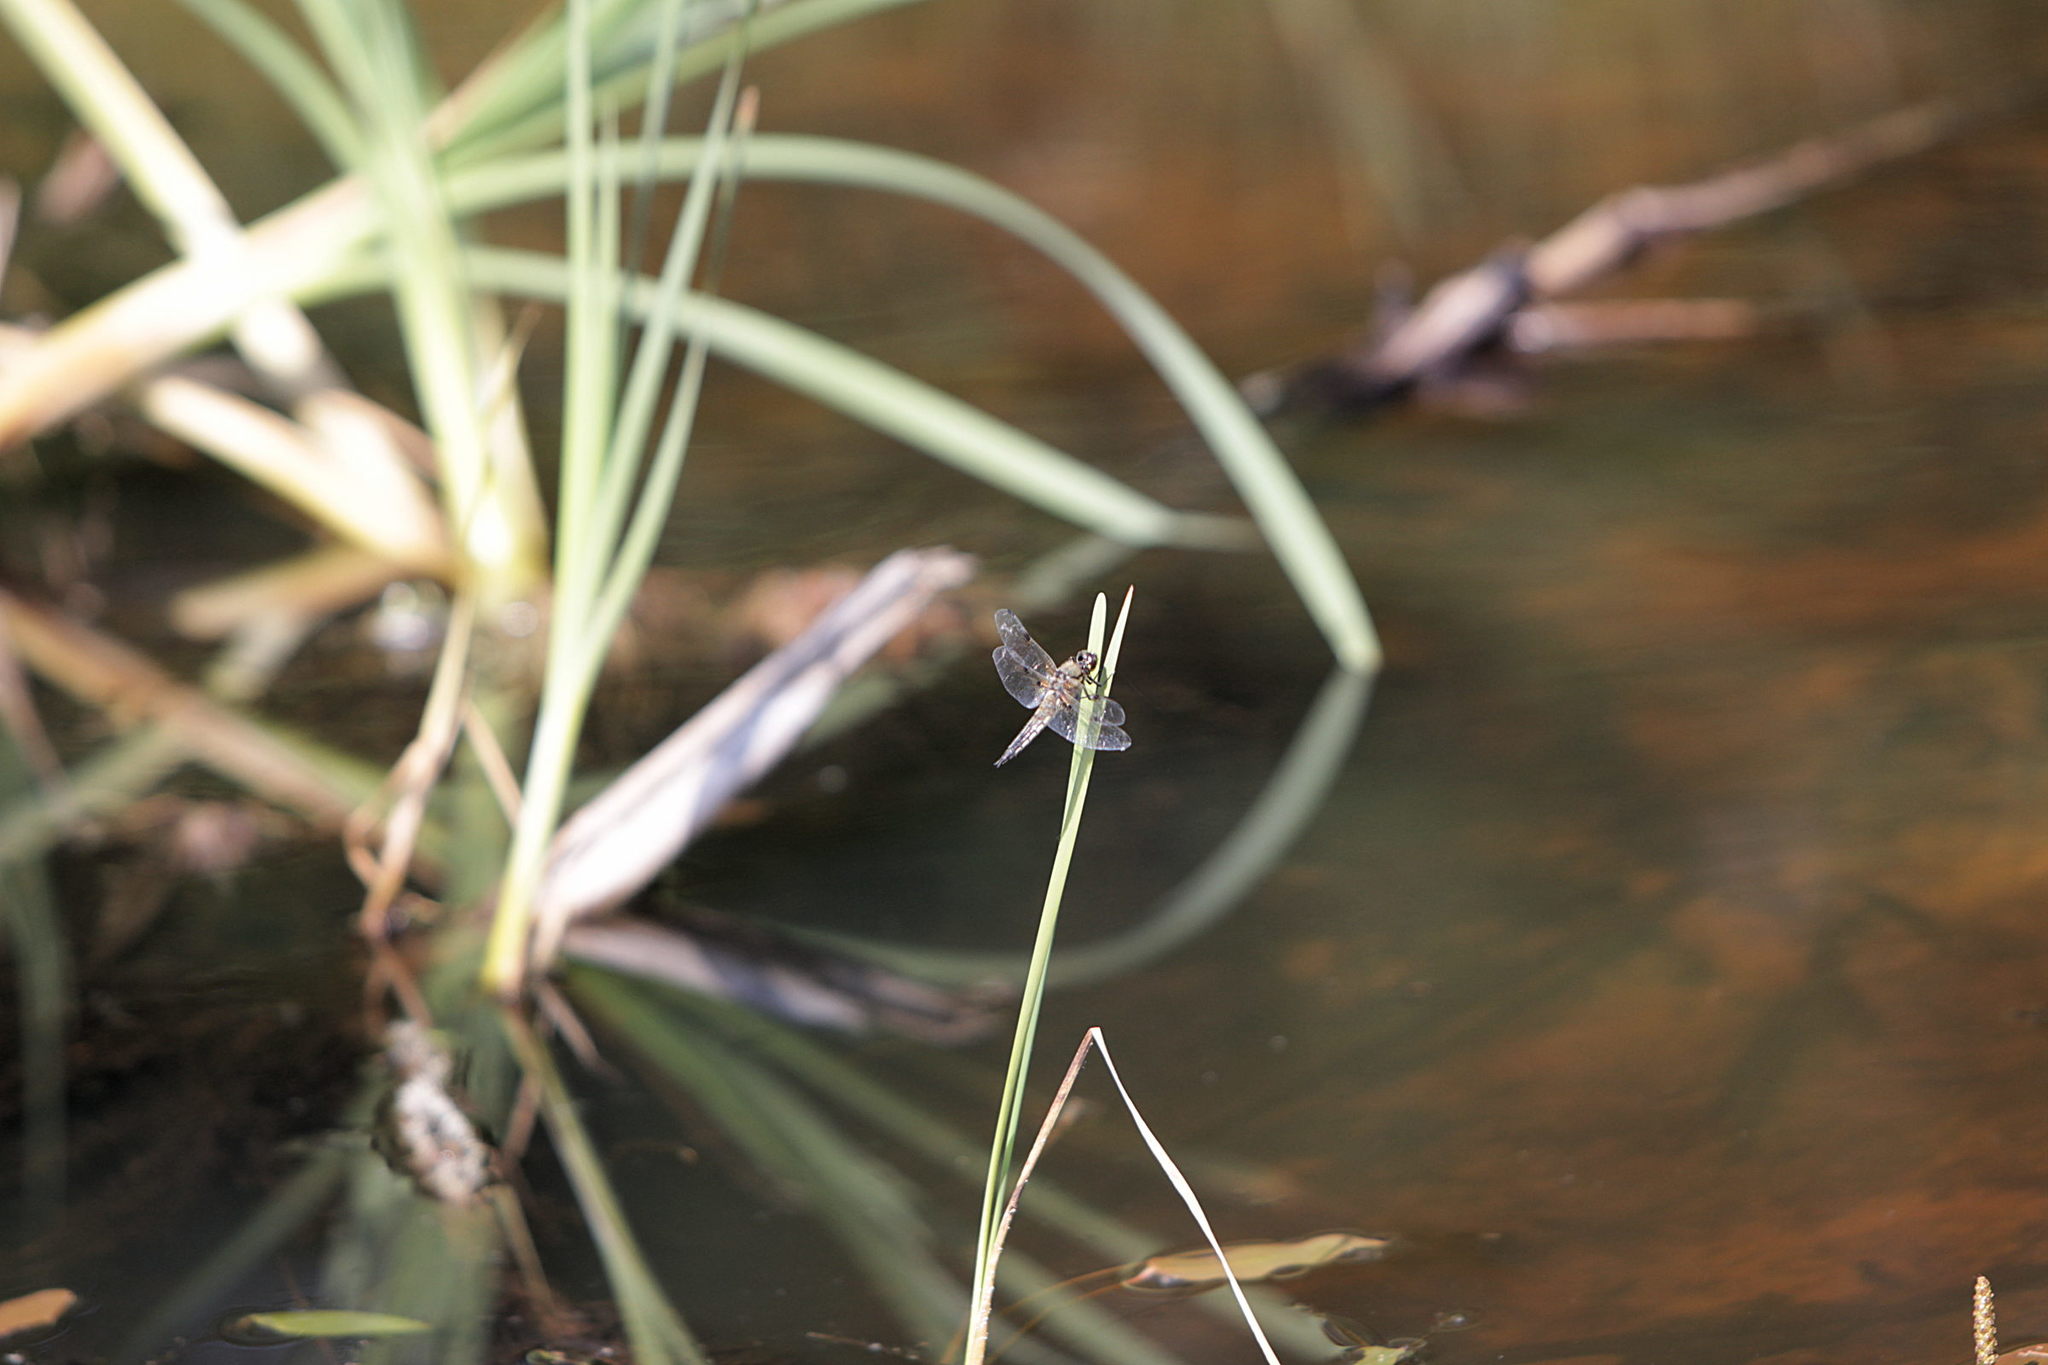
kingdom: Animalia
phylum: Arthropoda
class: Insecta
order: Odonata
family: Libellulidae
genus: Libellula
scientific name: Libellula quadrimaculata
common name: Four-spotted chaser
